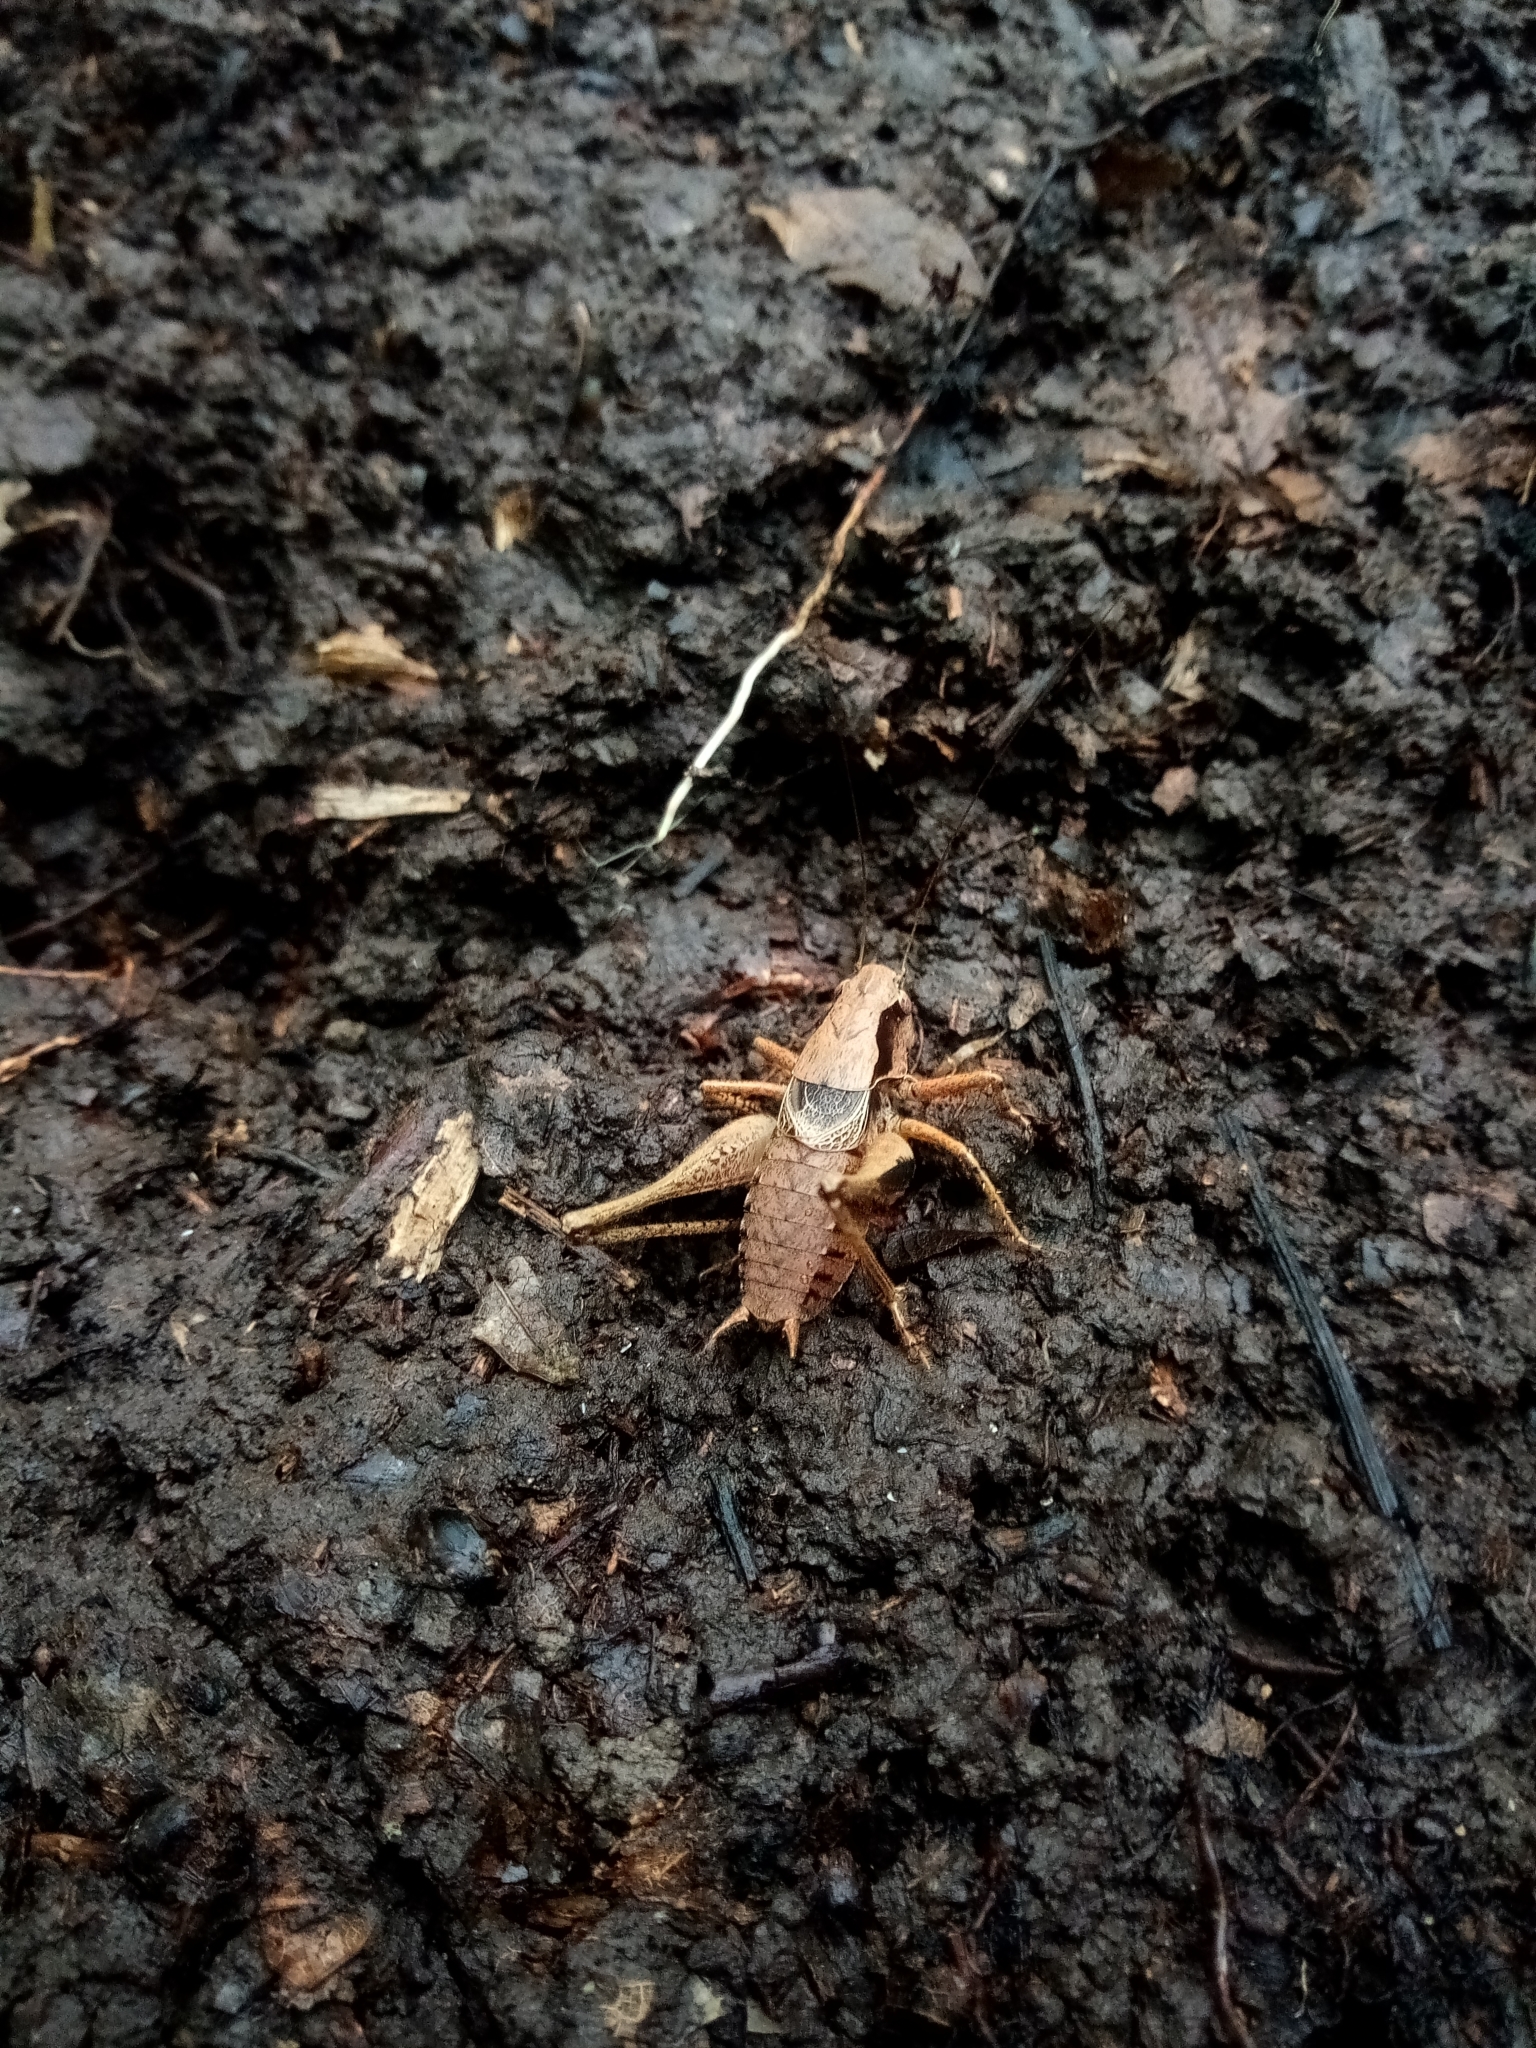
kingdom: Animalia
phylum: Arthropoda
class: Insecta
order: Orthoptera
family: Tettigoniidae
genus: Pholidoptera
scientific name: Pholidoptera griseoaptera
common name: Dark bush-cricket
